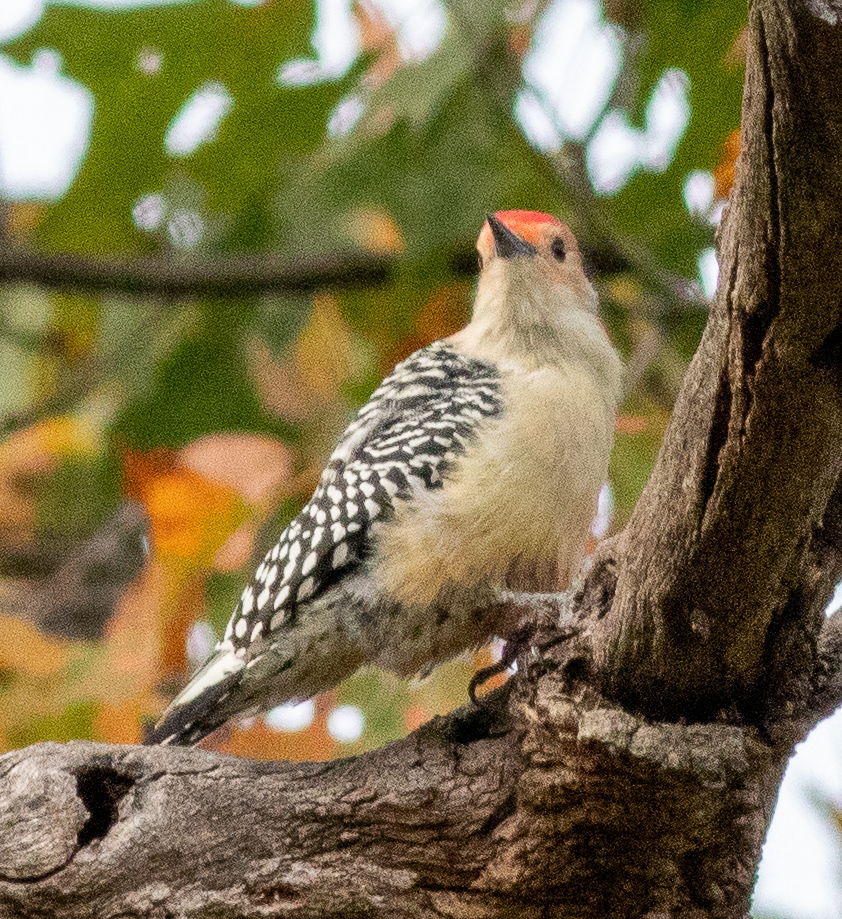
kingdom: Animalia
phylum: Chordata
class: Aves
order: Piciformes
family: Picidae
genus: Melanerpes
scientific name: Melanerpes carolinus
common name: Red-bellied woodpecker
